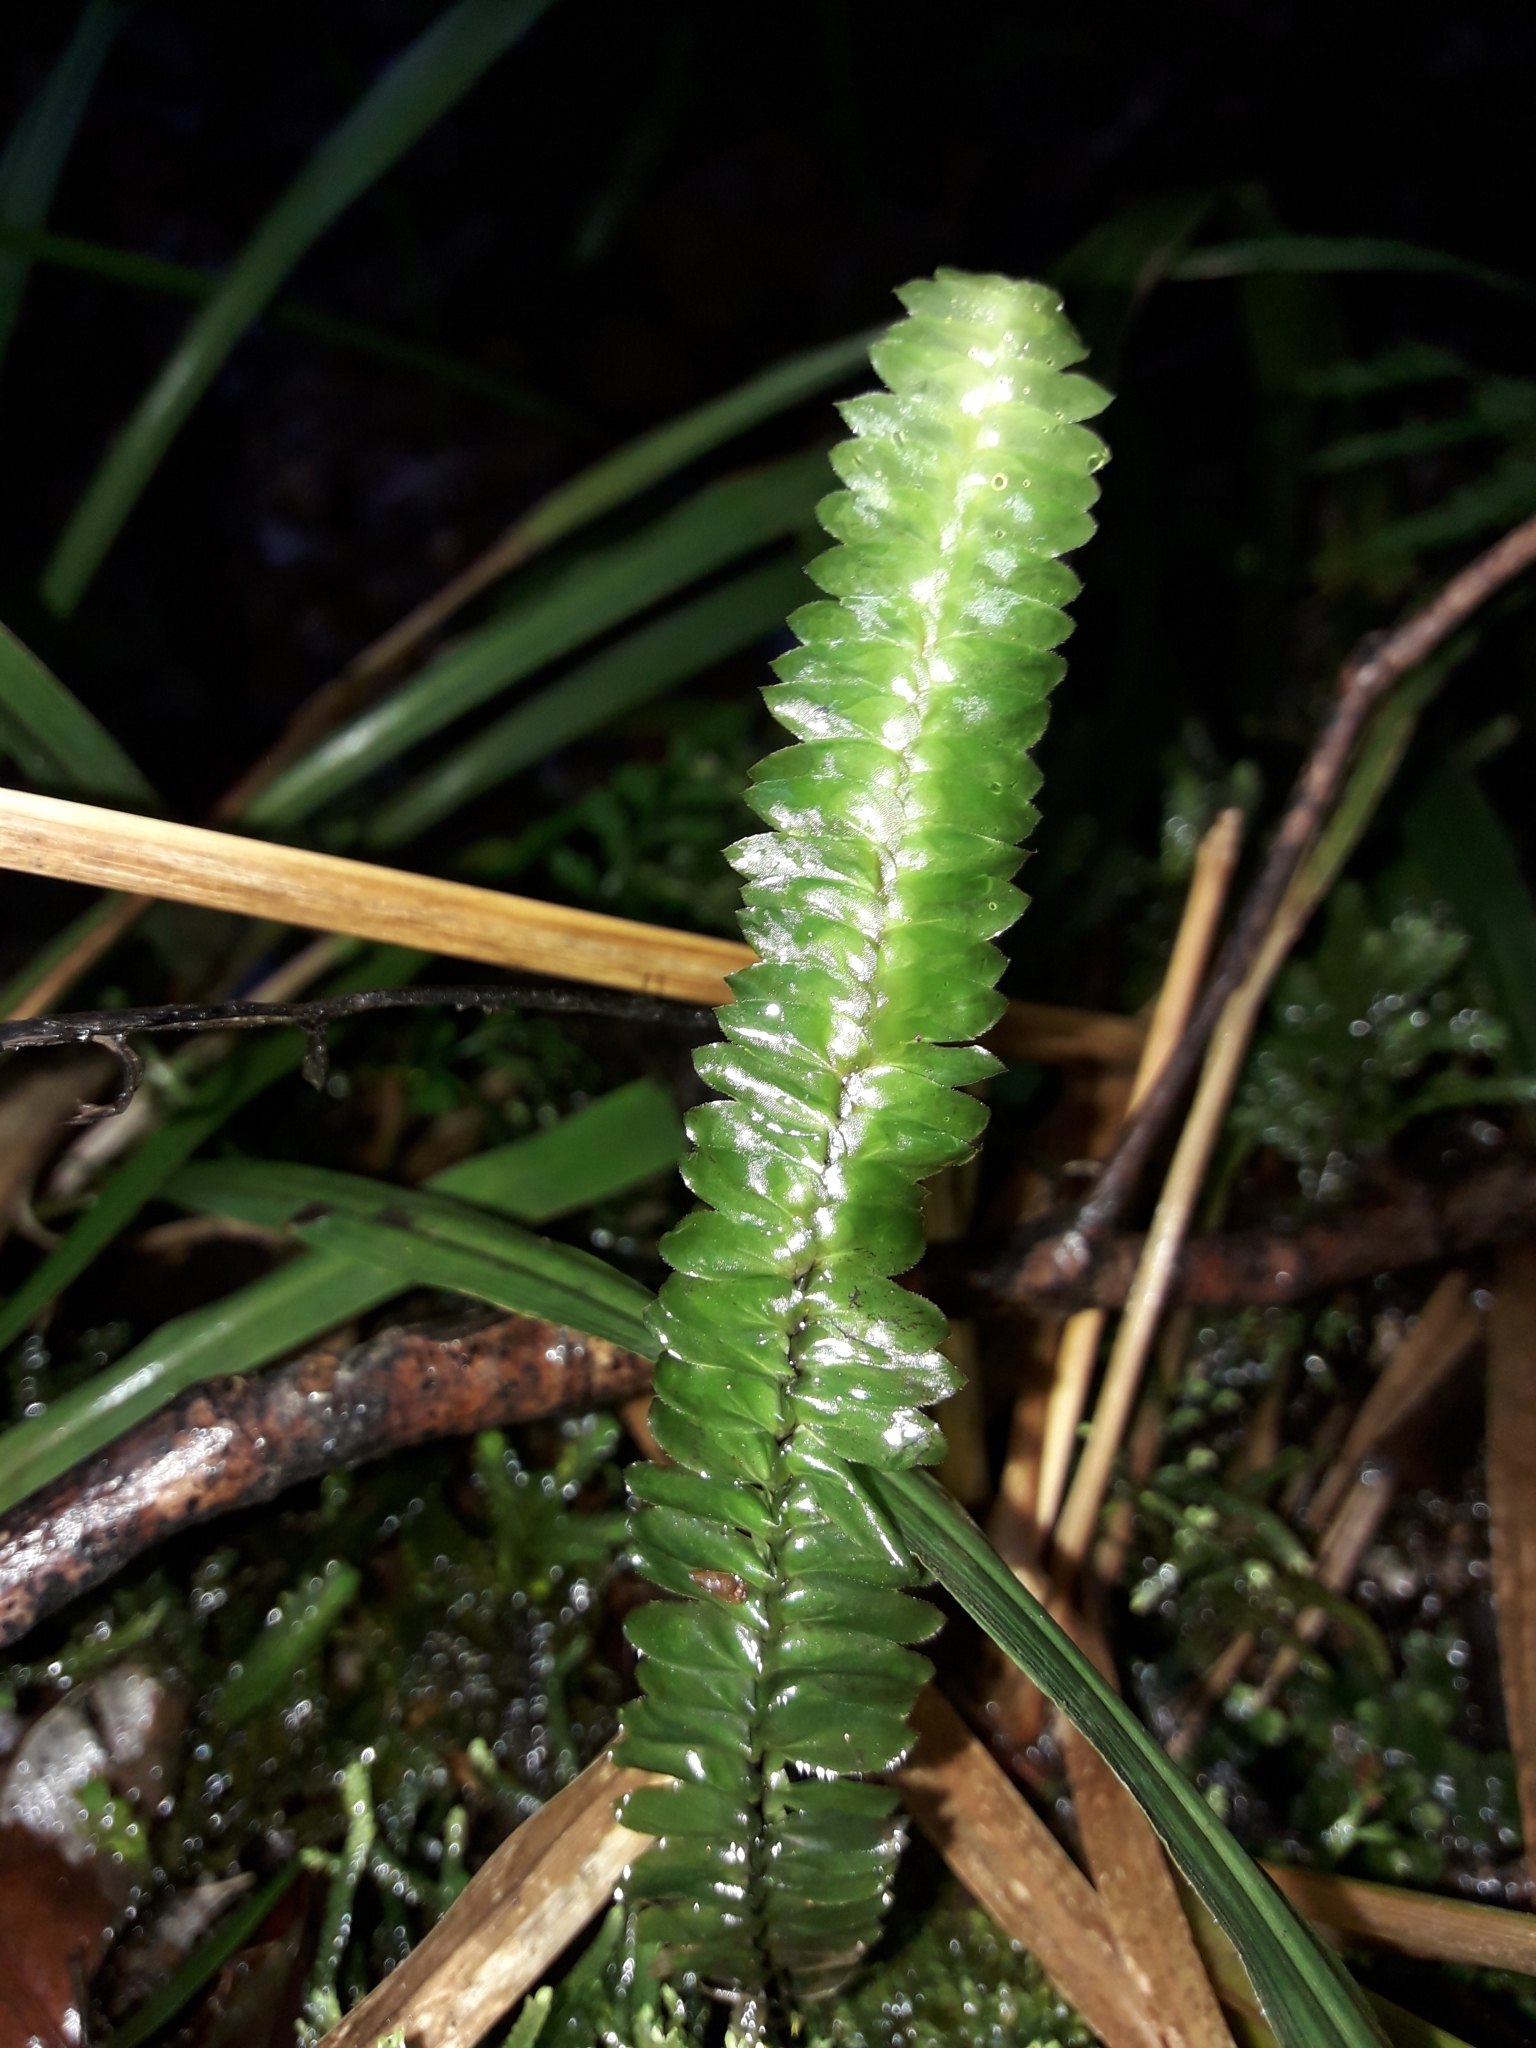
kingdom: Plantae
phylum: Bryophyta
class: Bryopsida
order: Hypopterygiales
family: Hypopterygiaceae
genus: Cyathophorum
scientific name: Cyathophorum bulbosum
